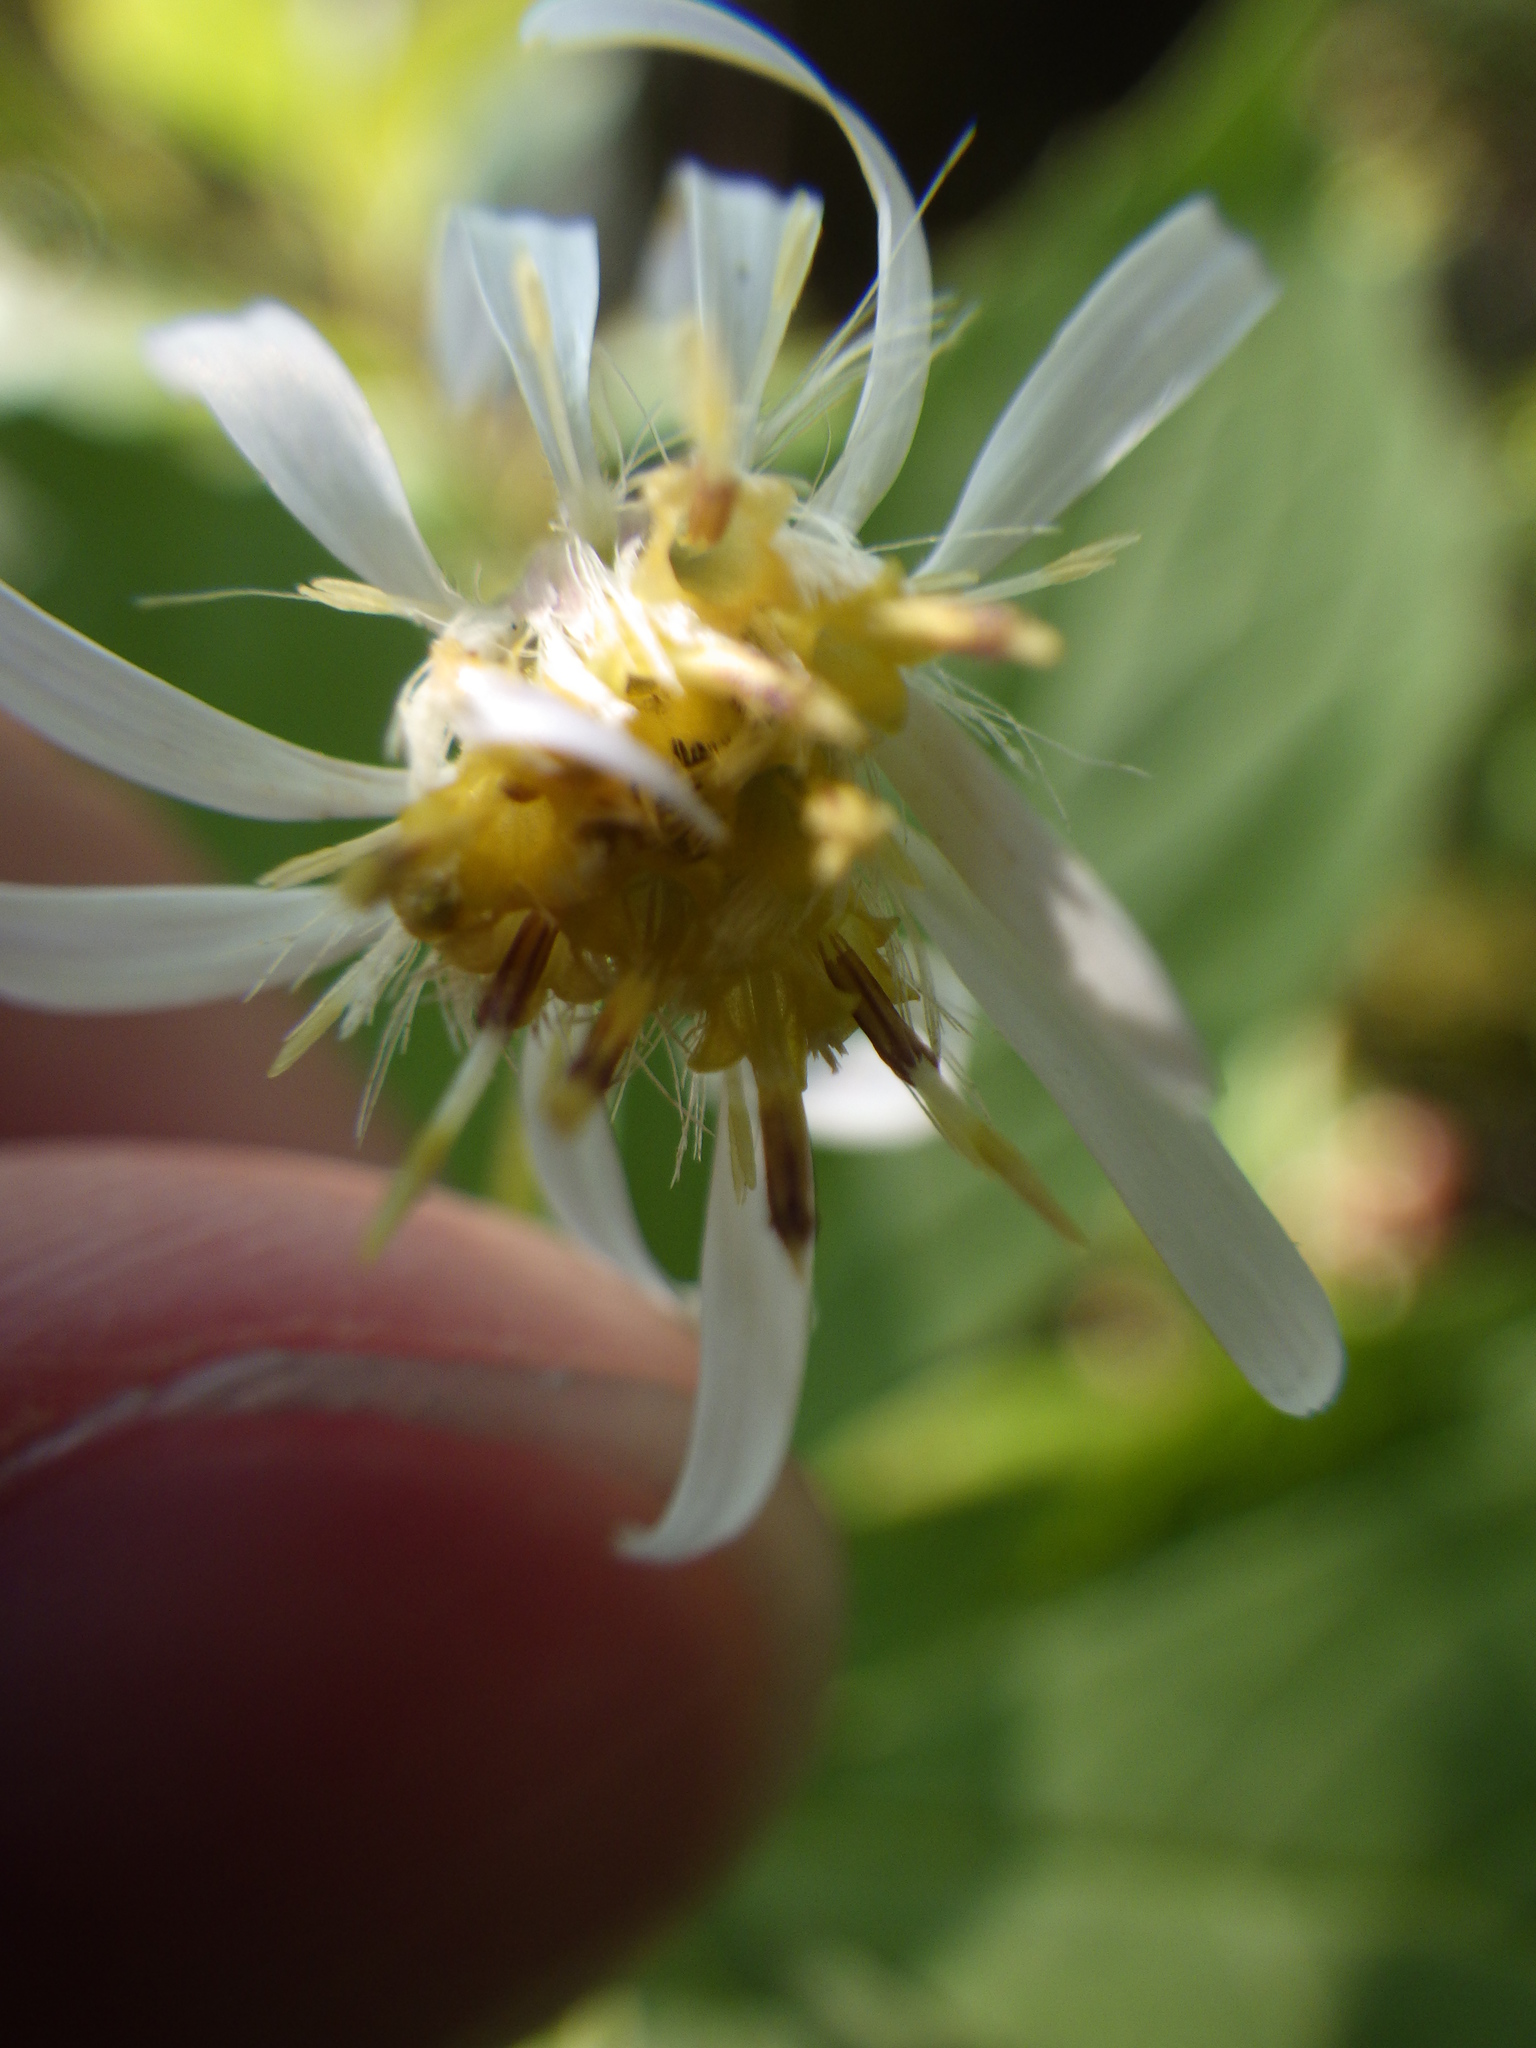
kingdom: Plantae
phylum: Tracheophyta
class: Magnoliopsida
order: Asterales
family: Asteraceae
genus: Symphyotrichum
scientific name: Symphyotrichum lateriflorum
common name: Calico aster
